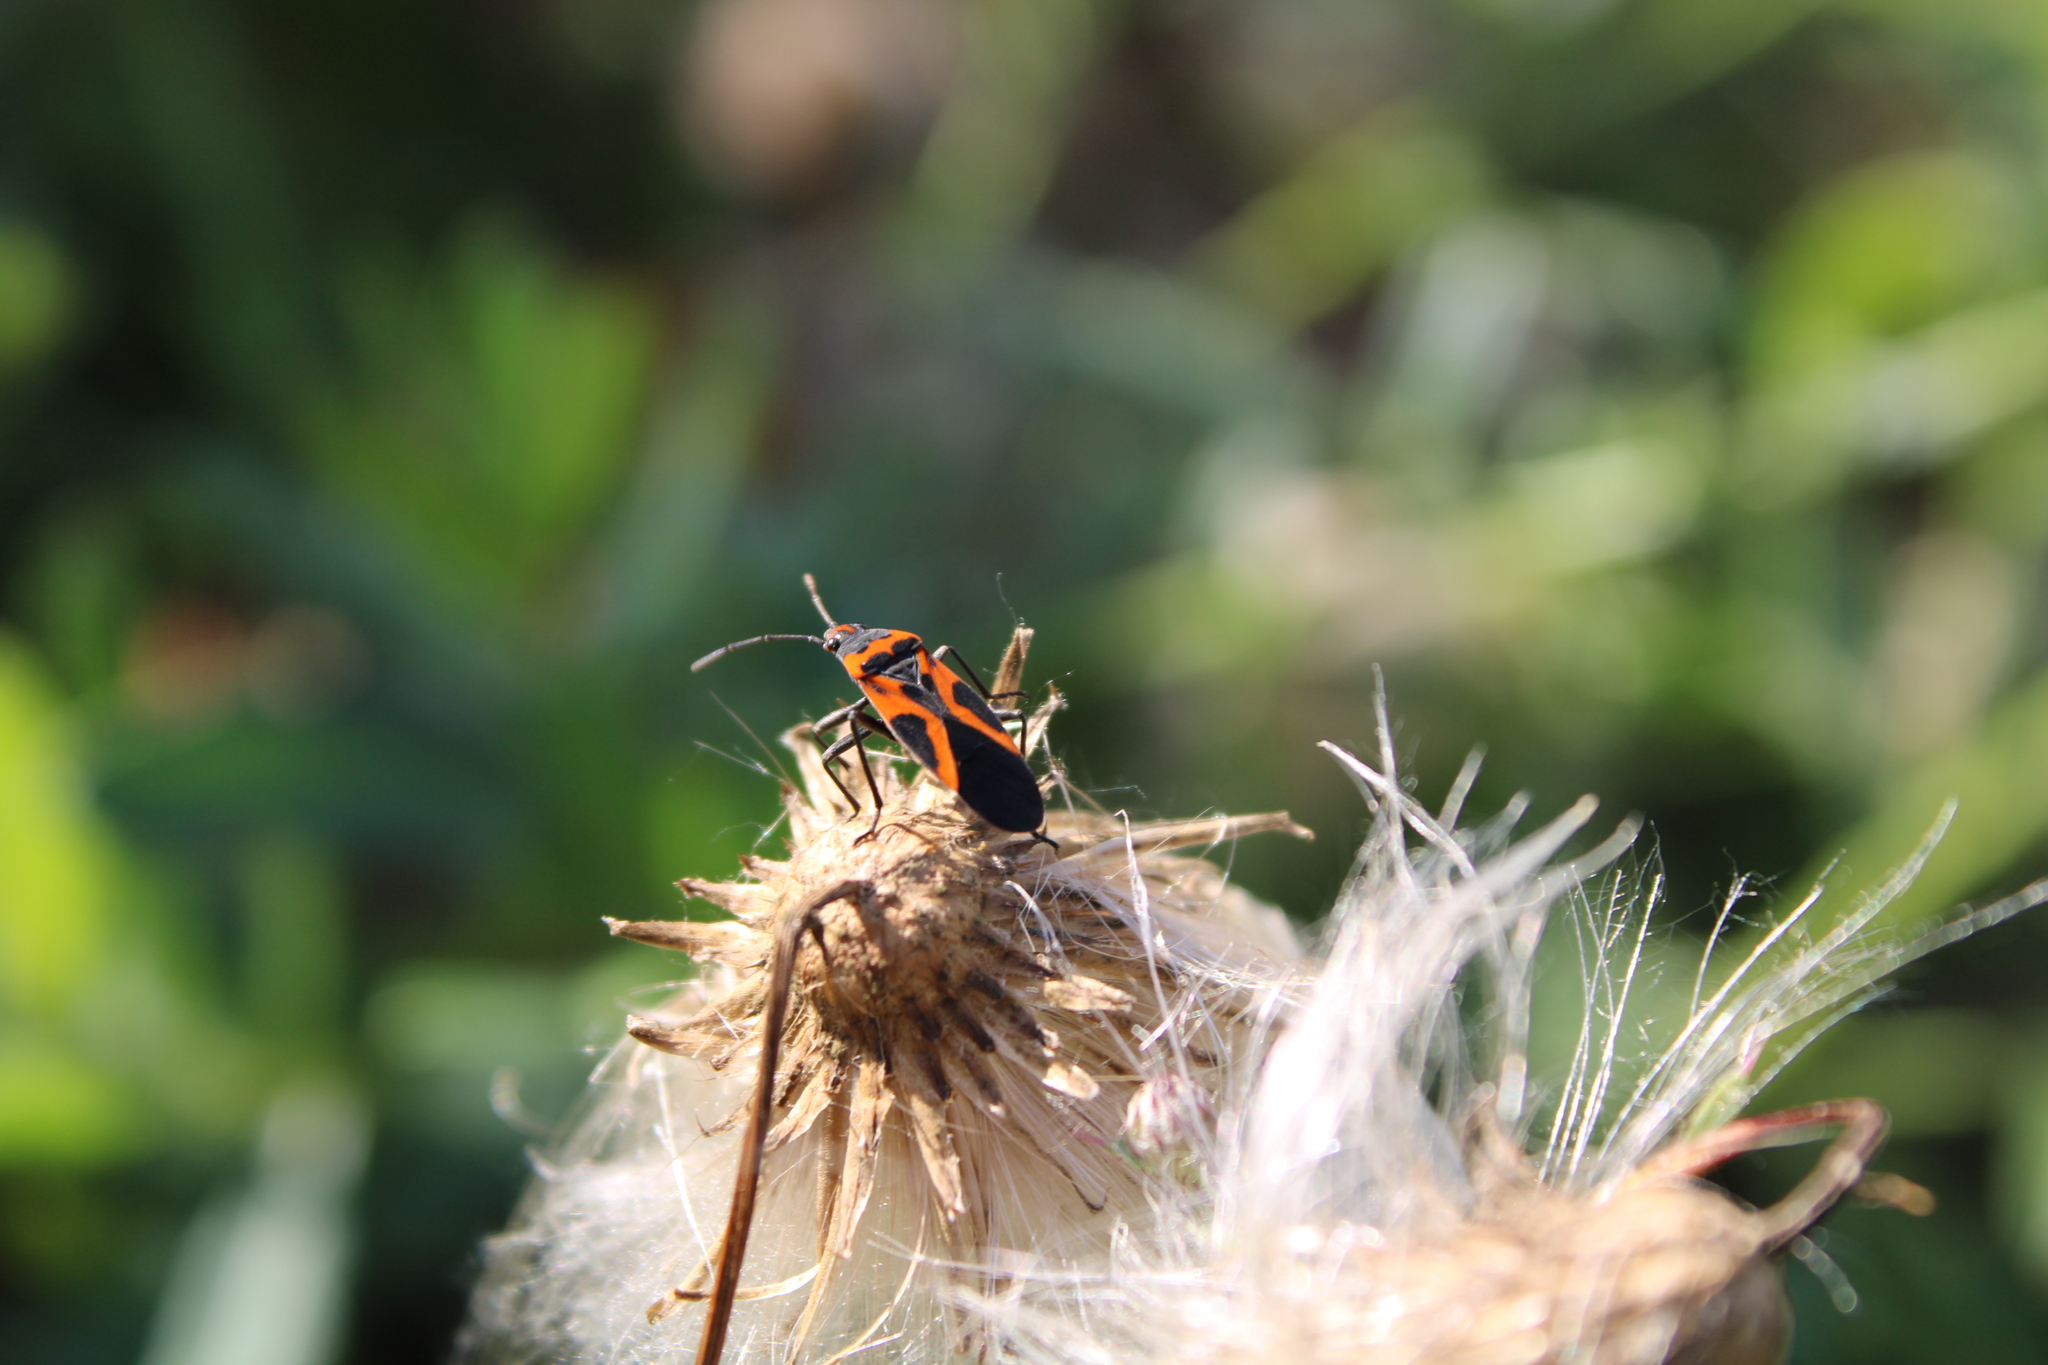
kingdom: Animalia
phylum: Arthropoda
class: Insecta
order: Hemiptera
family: Lygaeidae
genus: Lygaeus
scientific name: Lygaeus turcicus
